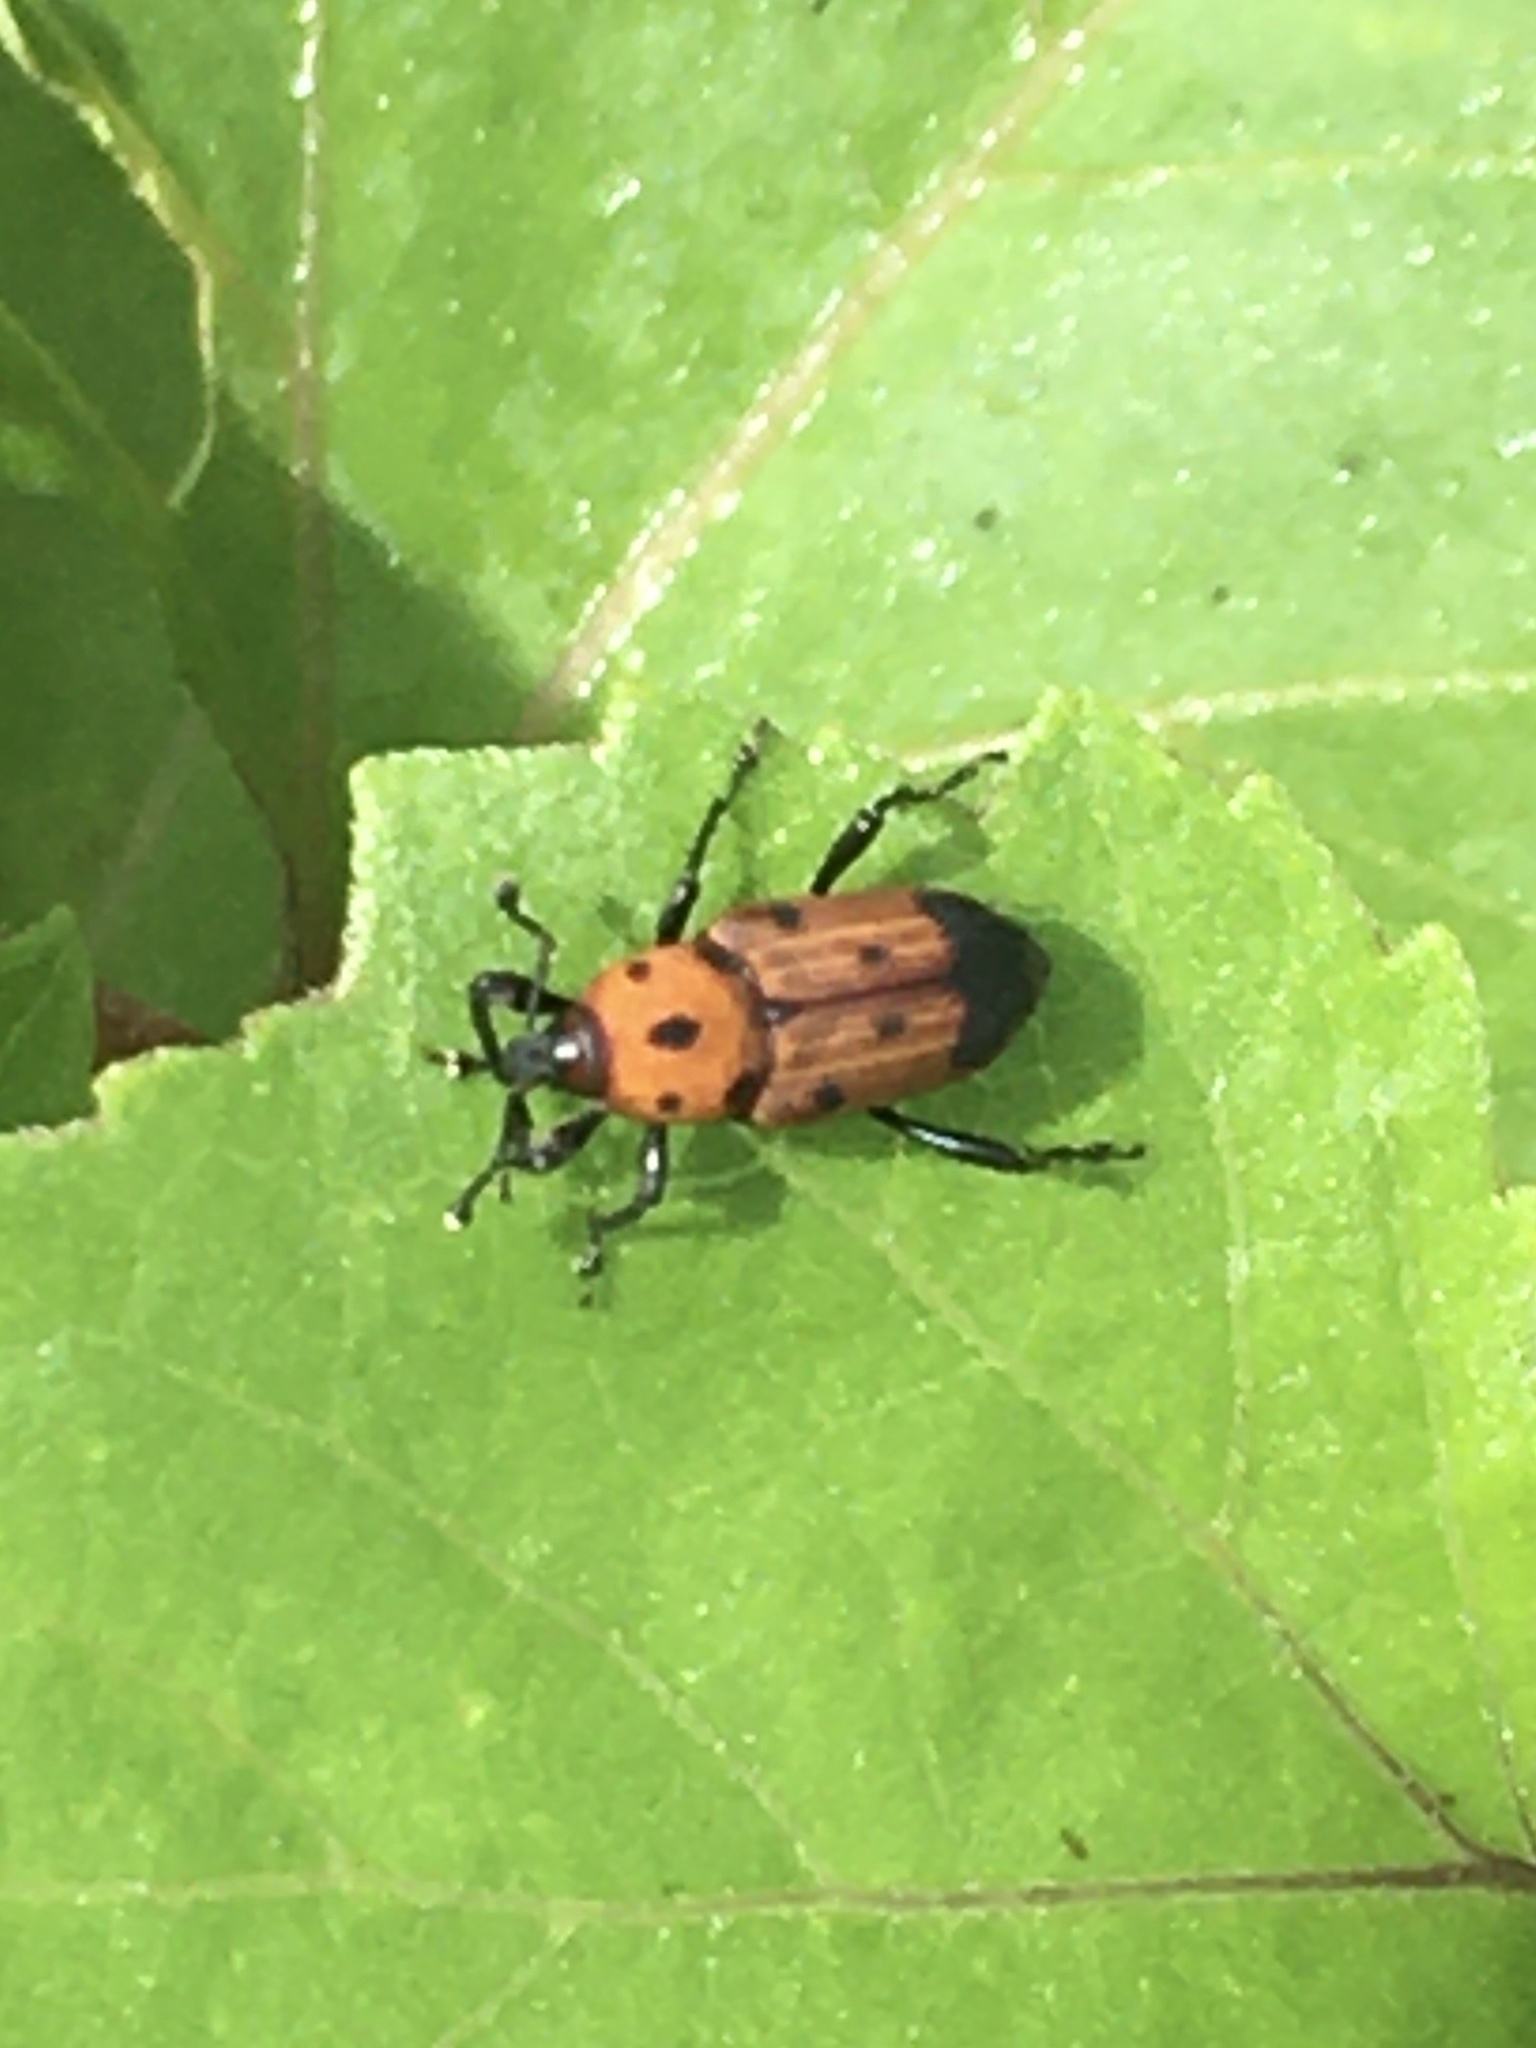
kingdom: Animalia
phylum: Arthropoda
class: Insecta
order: Coleoptera
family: Dryophthoridae
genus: Rhodobaenus
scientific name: Rhodobaenus quinquepunctatus
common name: Cocklebur weevil
